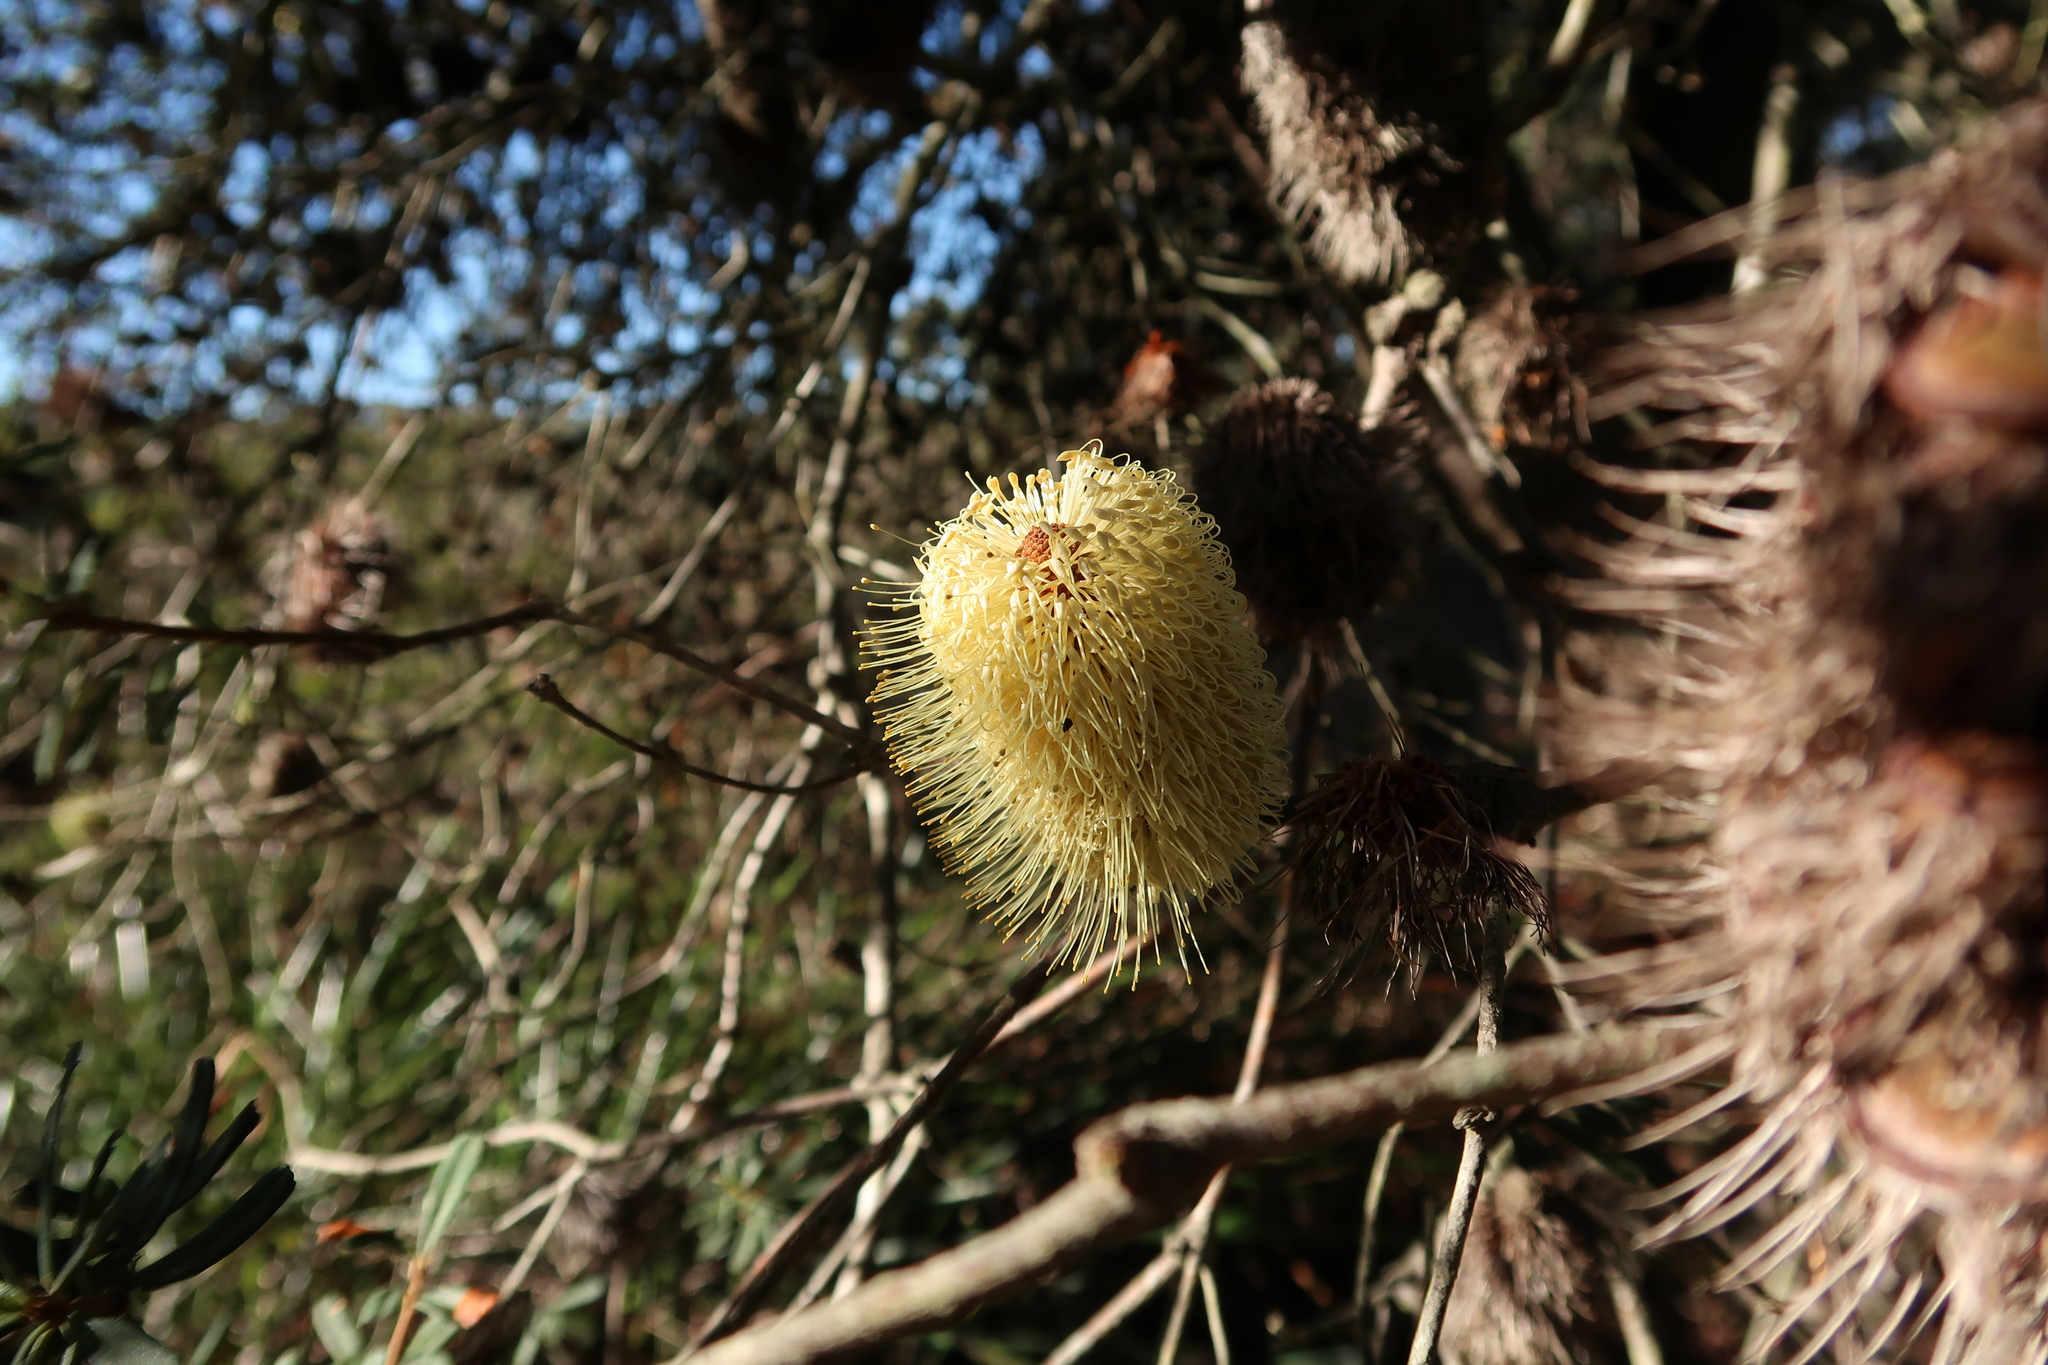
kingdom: Plantae
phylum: Tracheophyta
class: Magnoliopsida
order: Proteales
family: Proteaceae
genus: Banksia
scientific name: Banksia marginata
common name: Silver banksia
